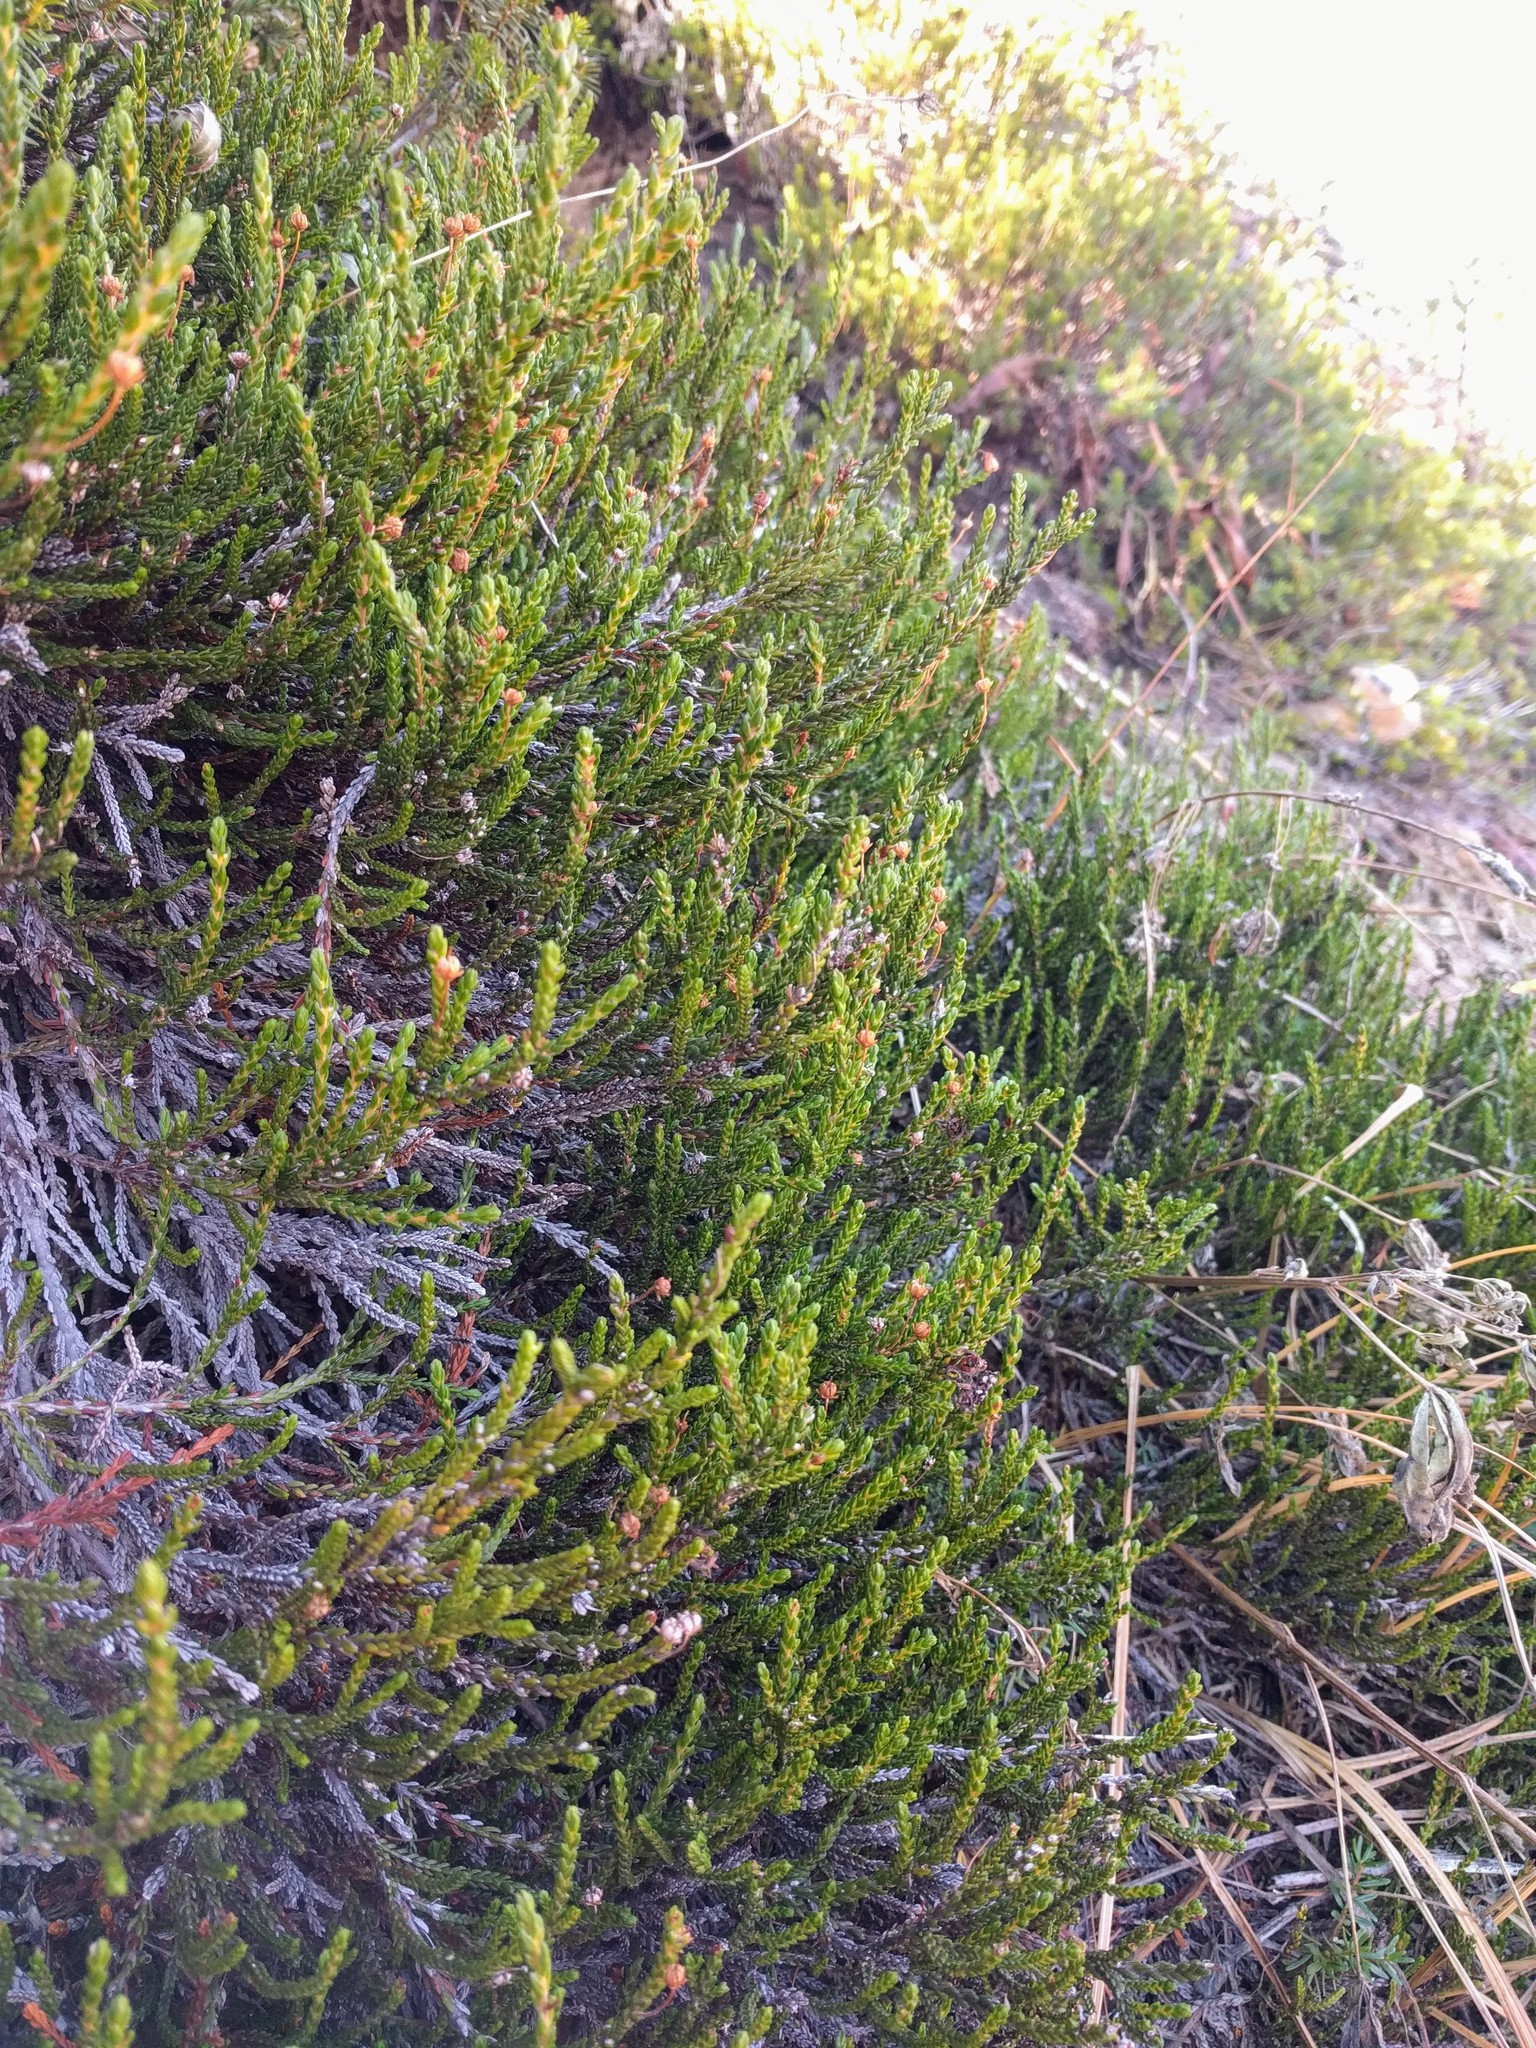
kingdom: Plantae
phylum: Tracheophyta
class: Magnoliopsida
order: Ericales
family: Ericaceae
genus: Cassiope
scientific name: Cassiope mertensiana
